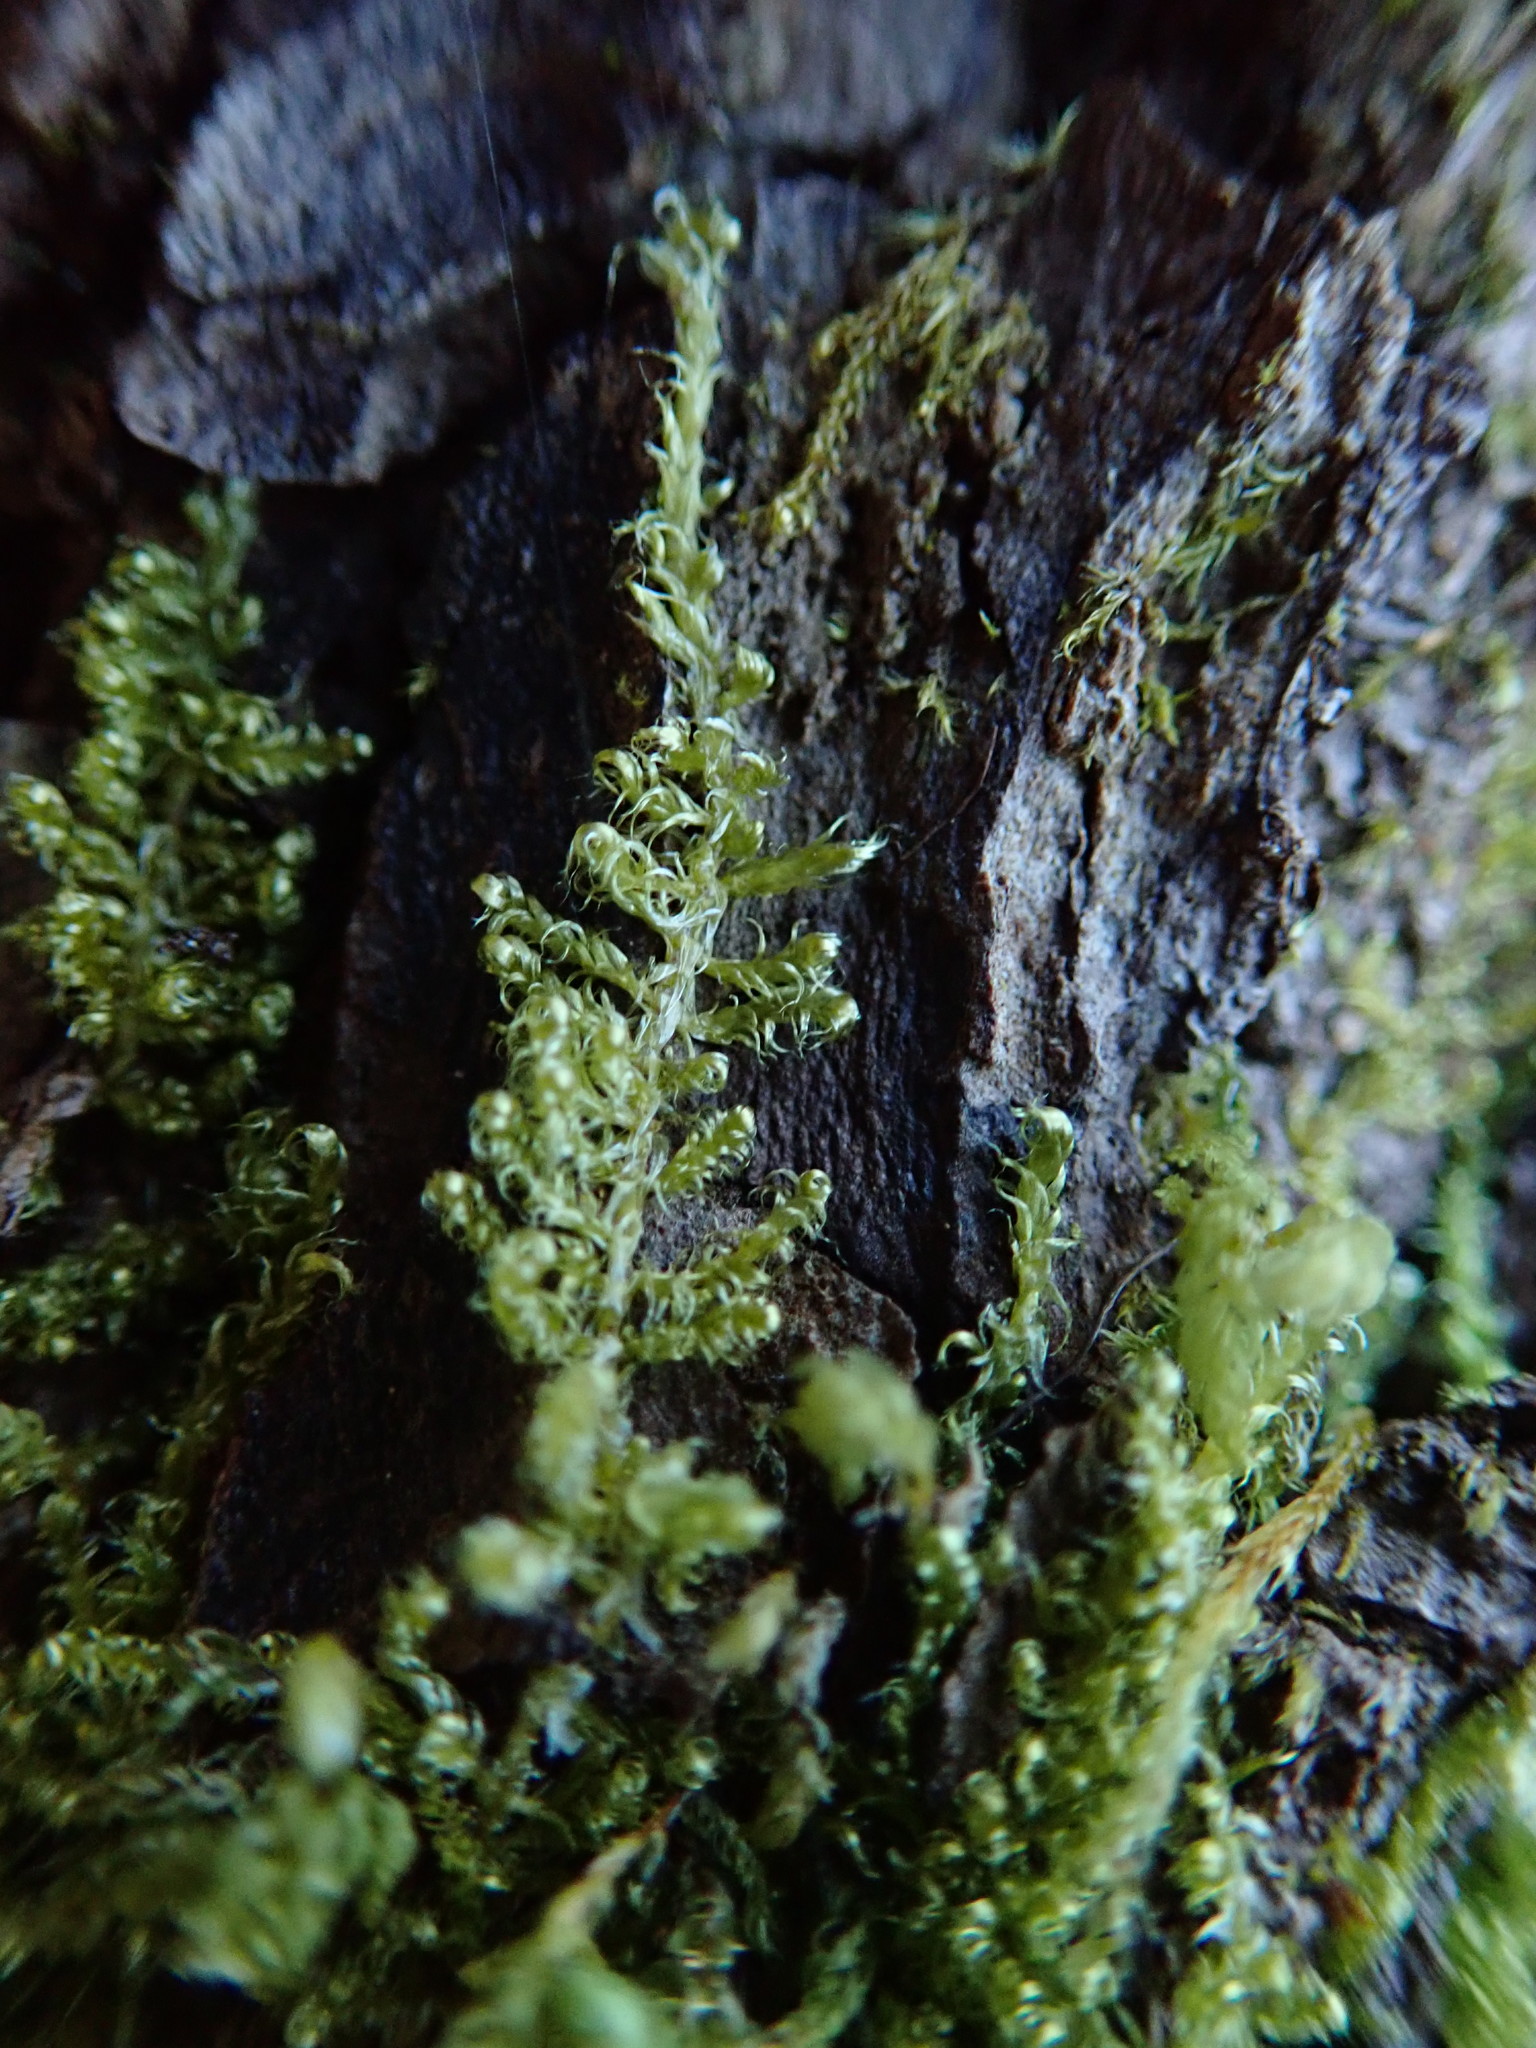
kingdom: Plantae
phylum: Bryophyta
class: Bryopsida
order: Hypnales
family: Stereodontaceae
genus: Stereodon
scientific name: Stereodon subimponens
